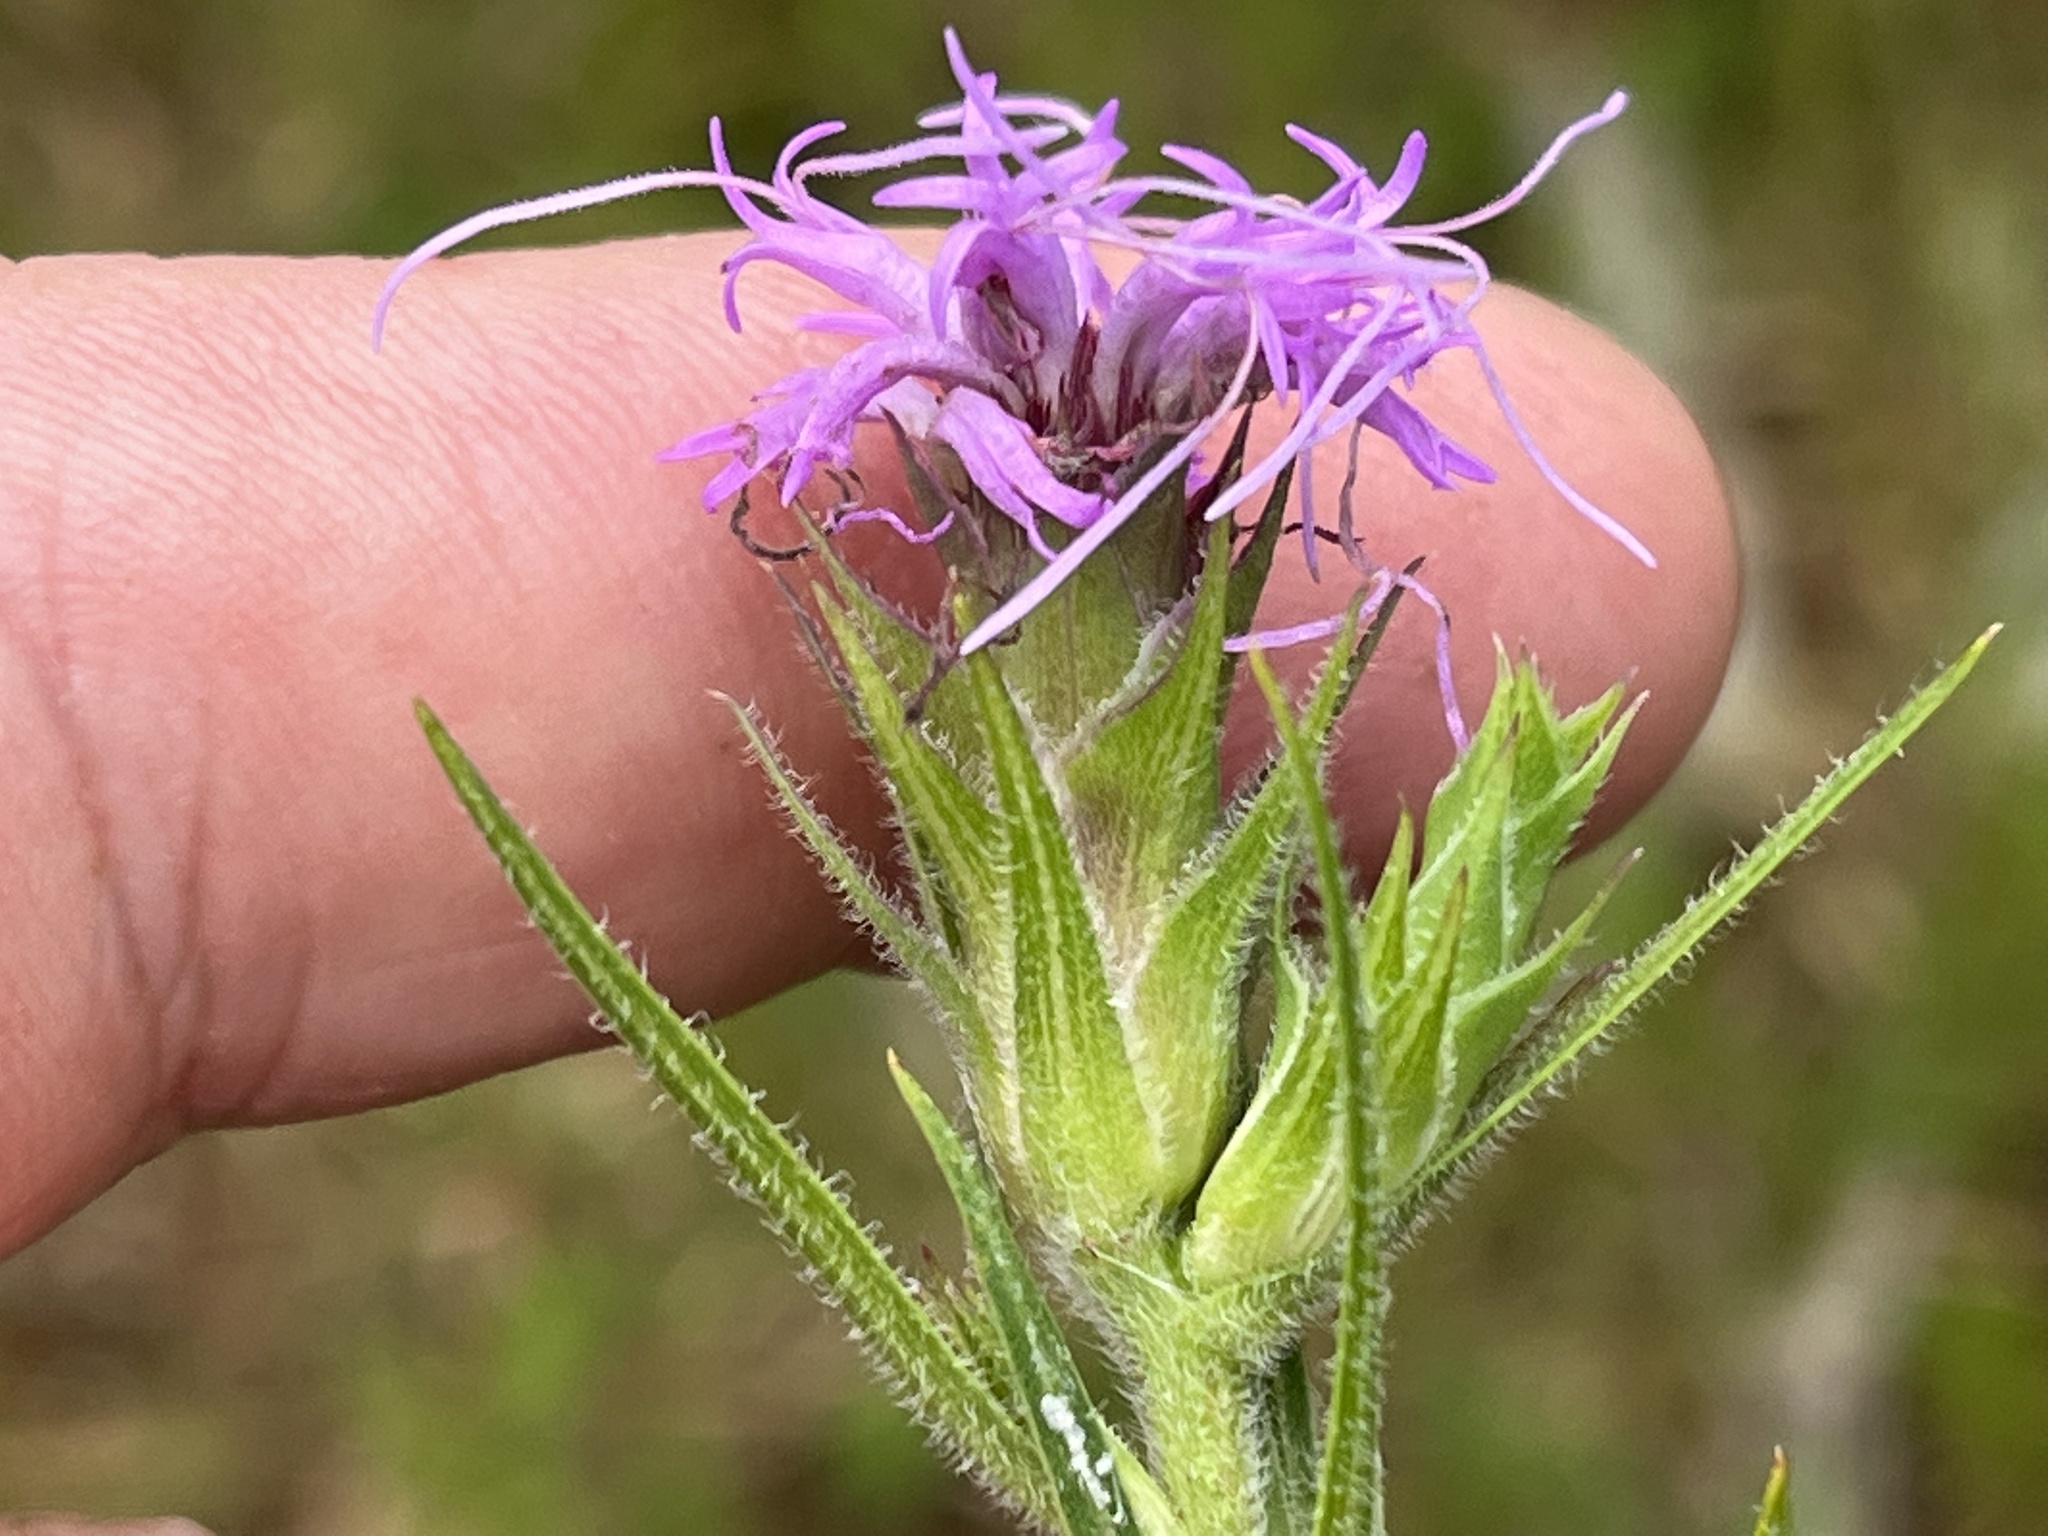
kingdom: Plantae
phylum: Tracheophyta
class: Magnoliopsida
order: Asterales
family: Asteraceae
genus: Liatris
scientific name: Liatris squarrosa
